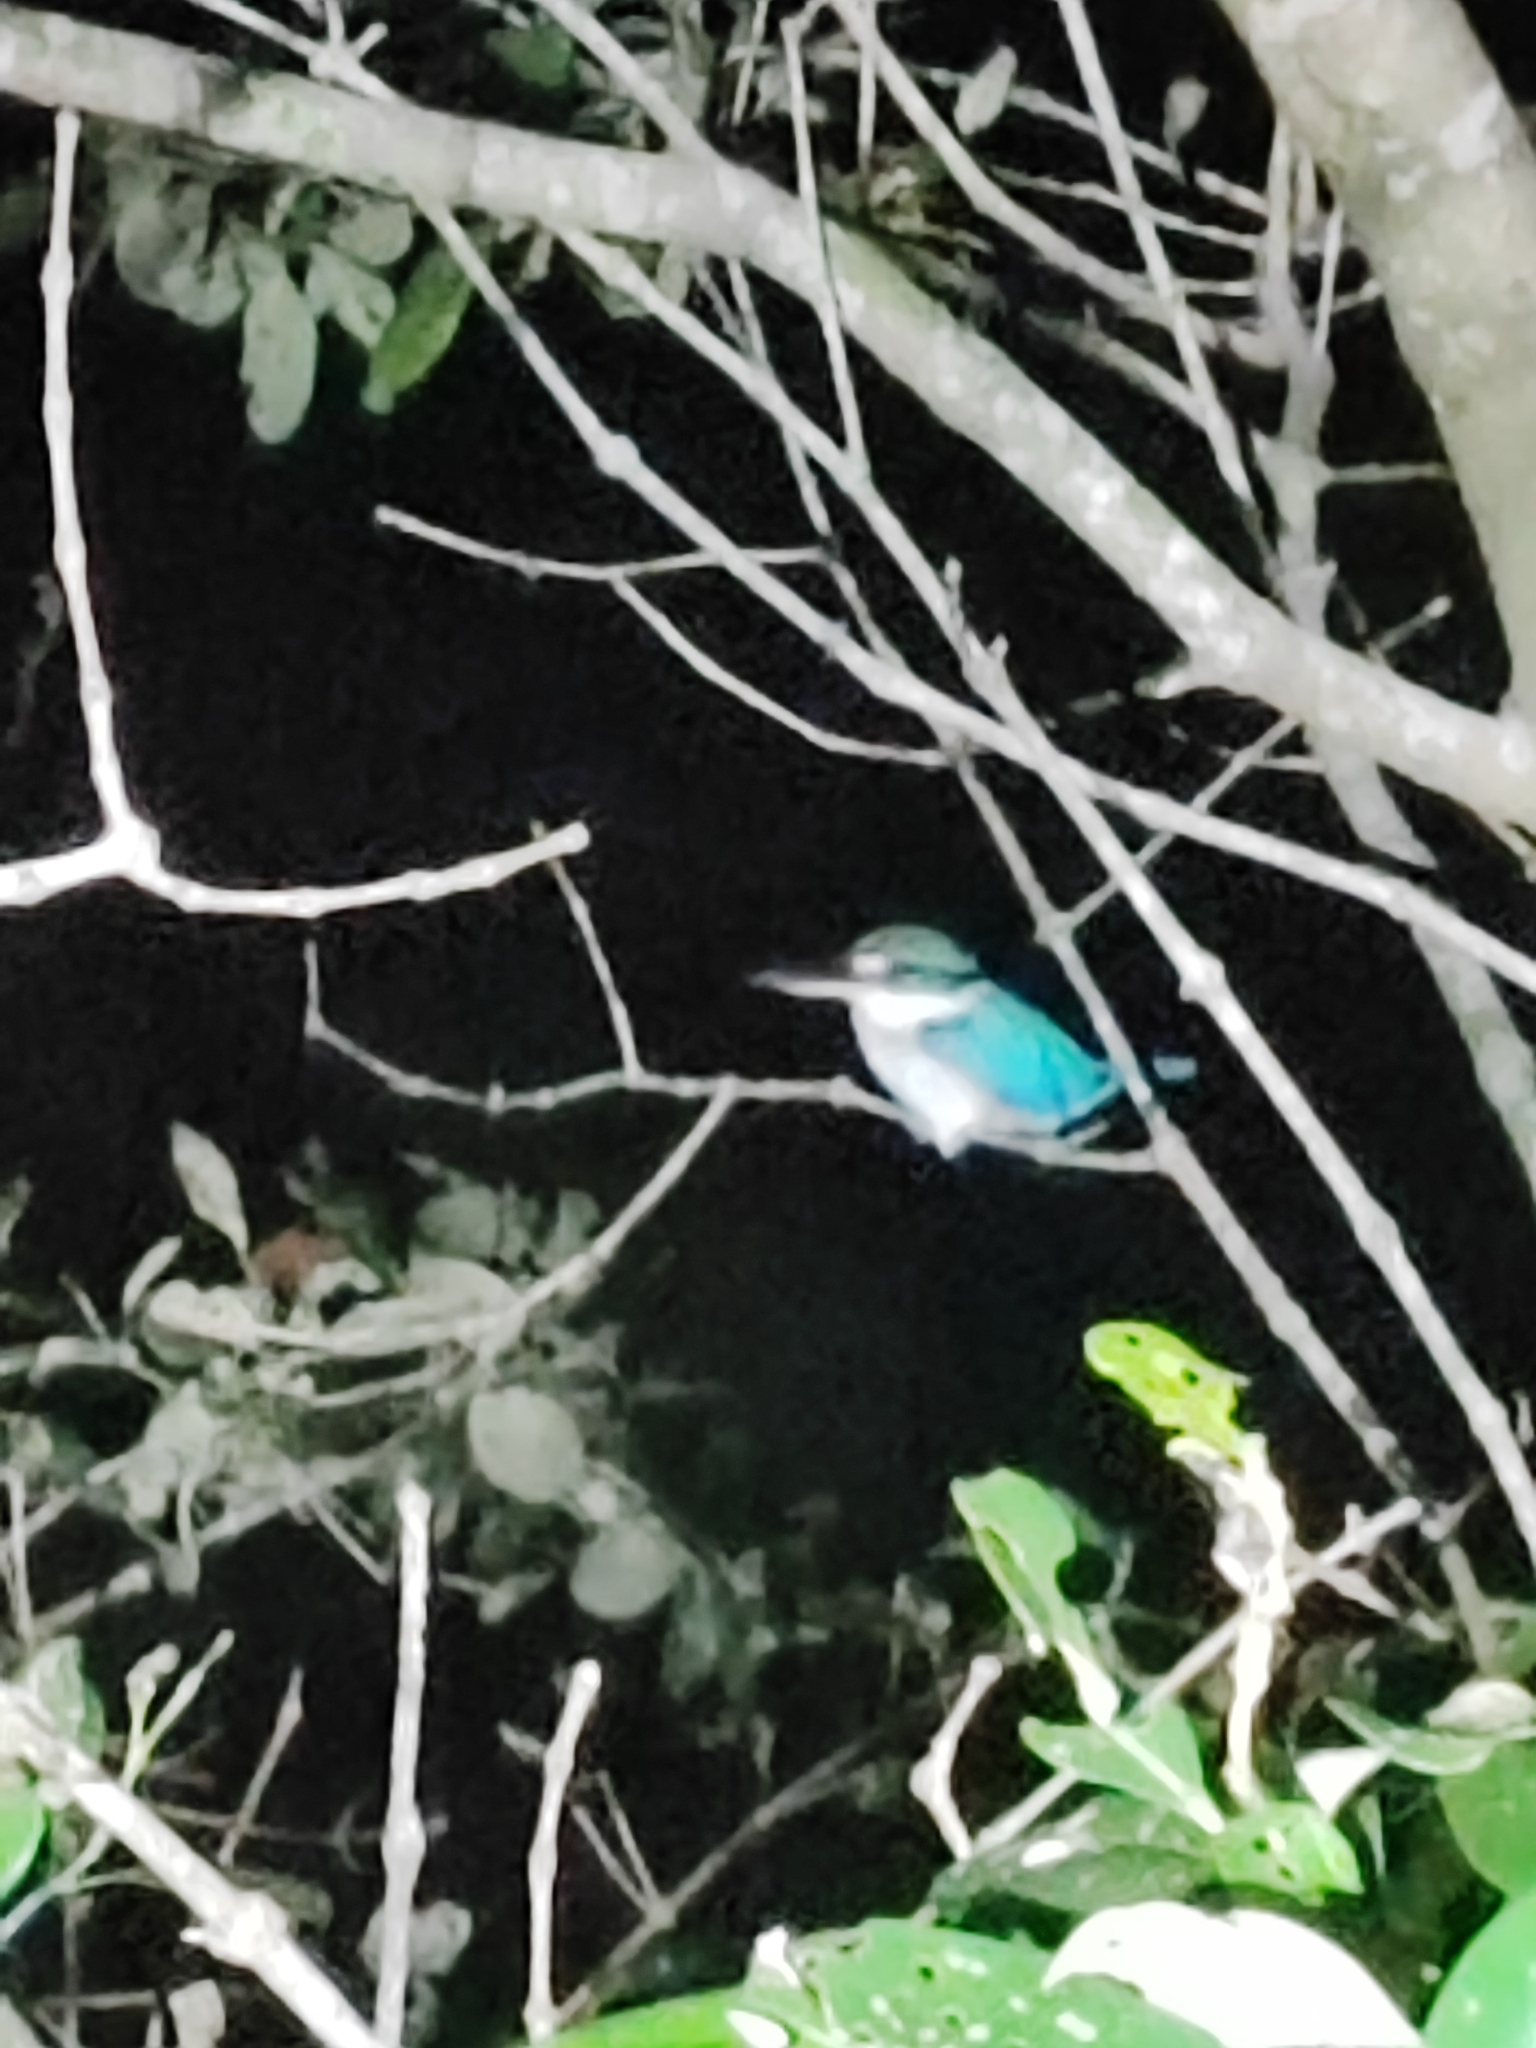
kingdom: Animalia
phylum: Chordata
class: Aves
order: Coraciiformes
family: Alcedinidae
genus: Todiramphus
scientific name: Todiramphus chloris
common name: Collared kingfisher
